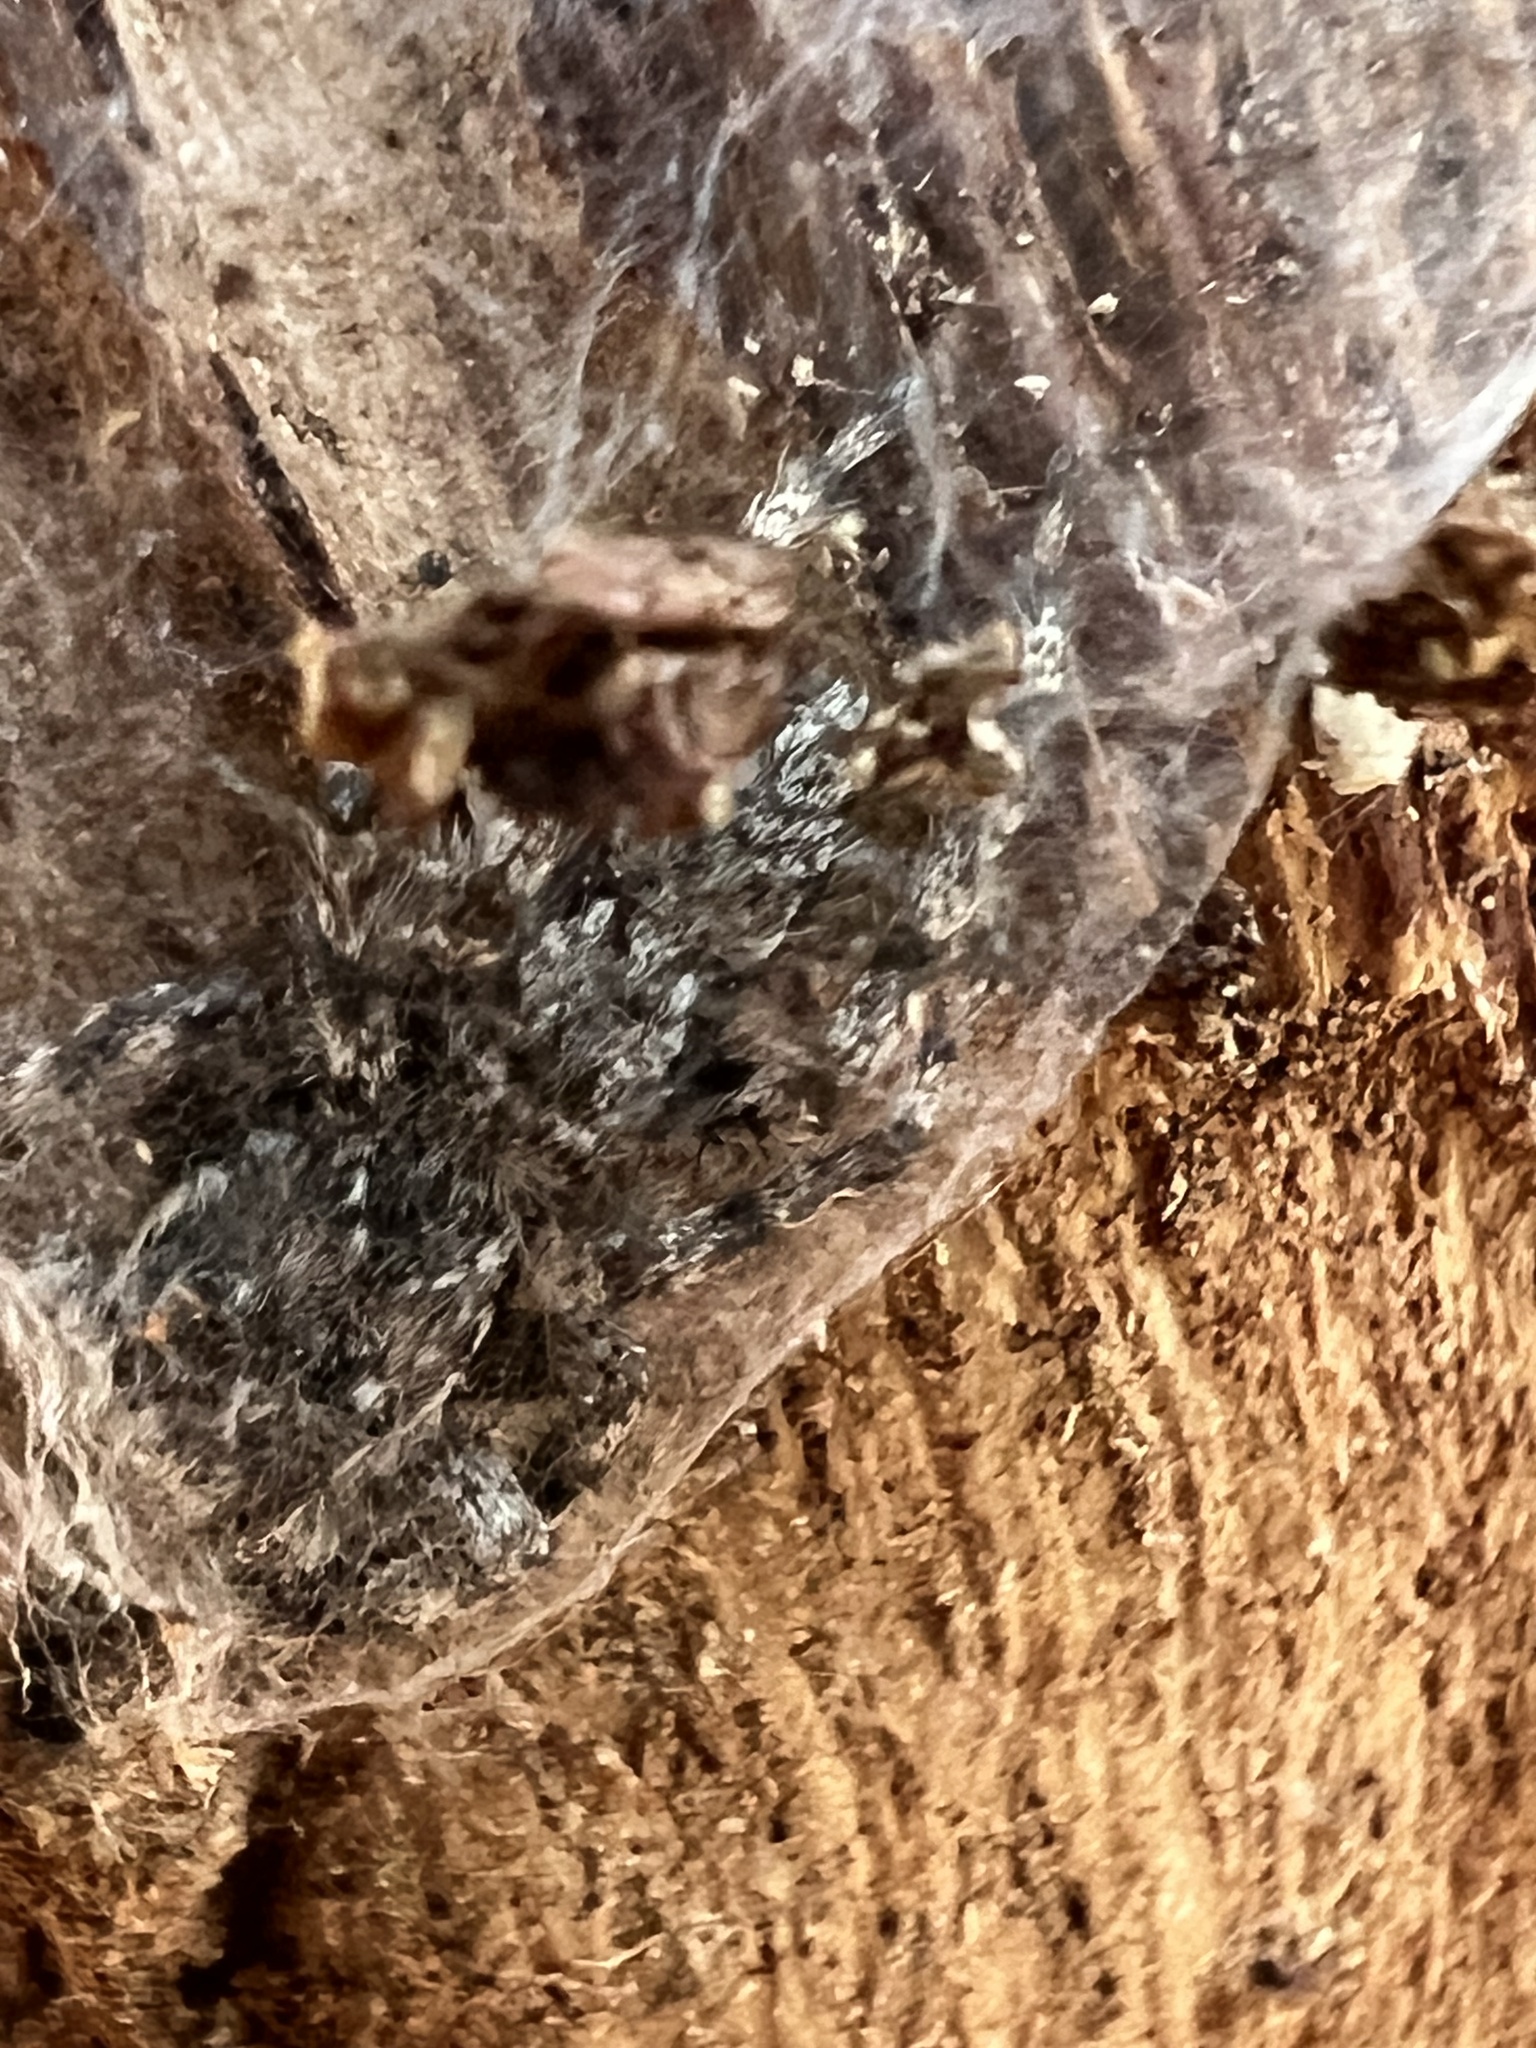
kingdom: Animalia
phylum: Arthropoda
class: Arachnida
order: Araneae
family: Salticidae
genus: Platycryptus
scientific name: Platycryptus undatus
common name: Tan jumping spider
